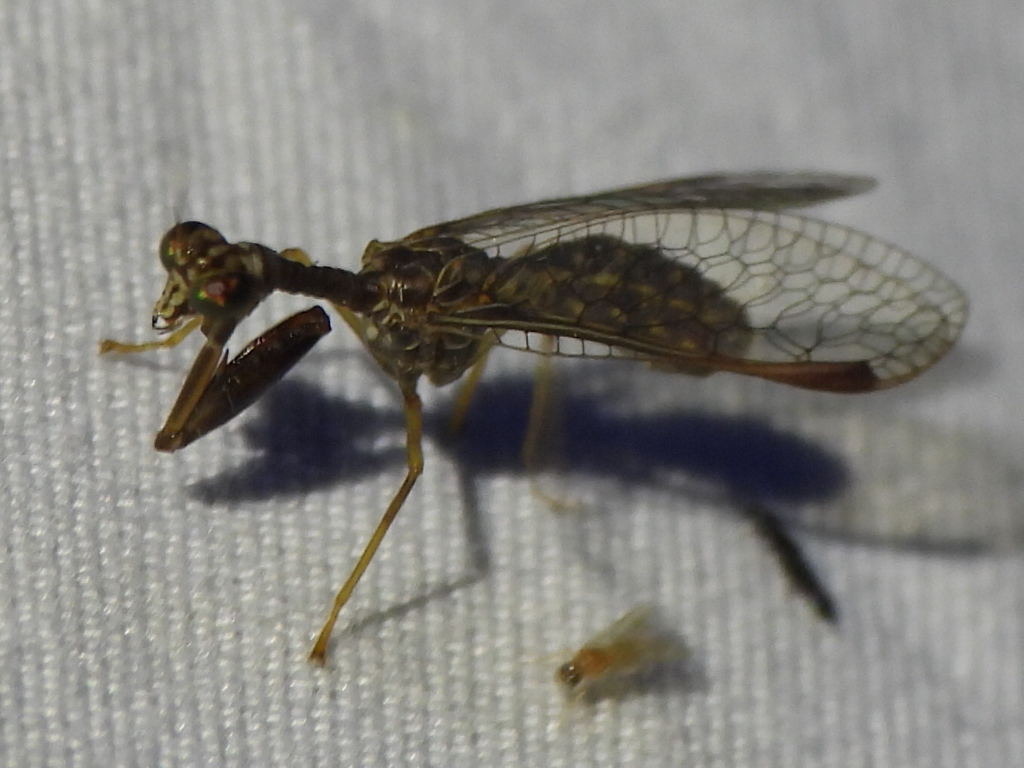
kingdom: Animalia
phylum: Arthropoda
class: Insecta
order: Neuroptera
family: Mantispidae
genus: Dicromantispa
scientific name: Dicromantispa sayi
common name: Say's mantidfly
